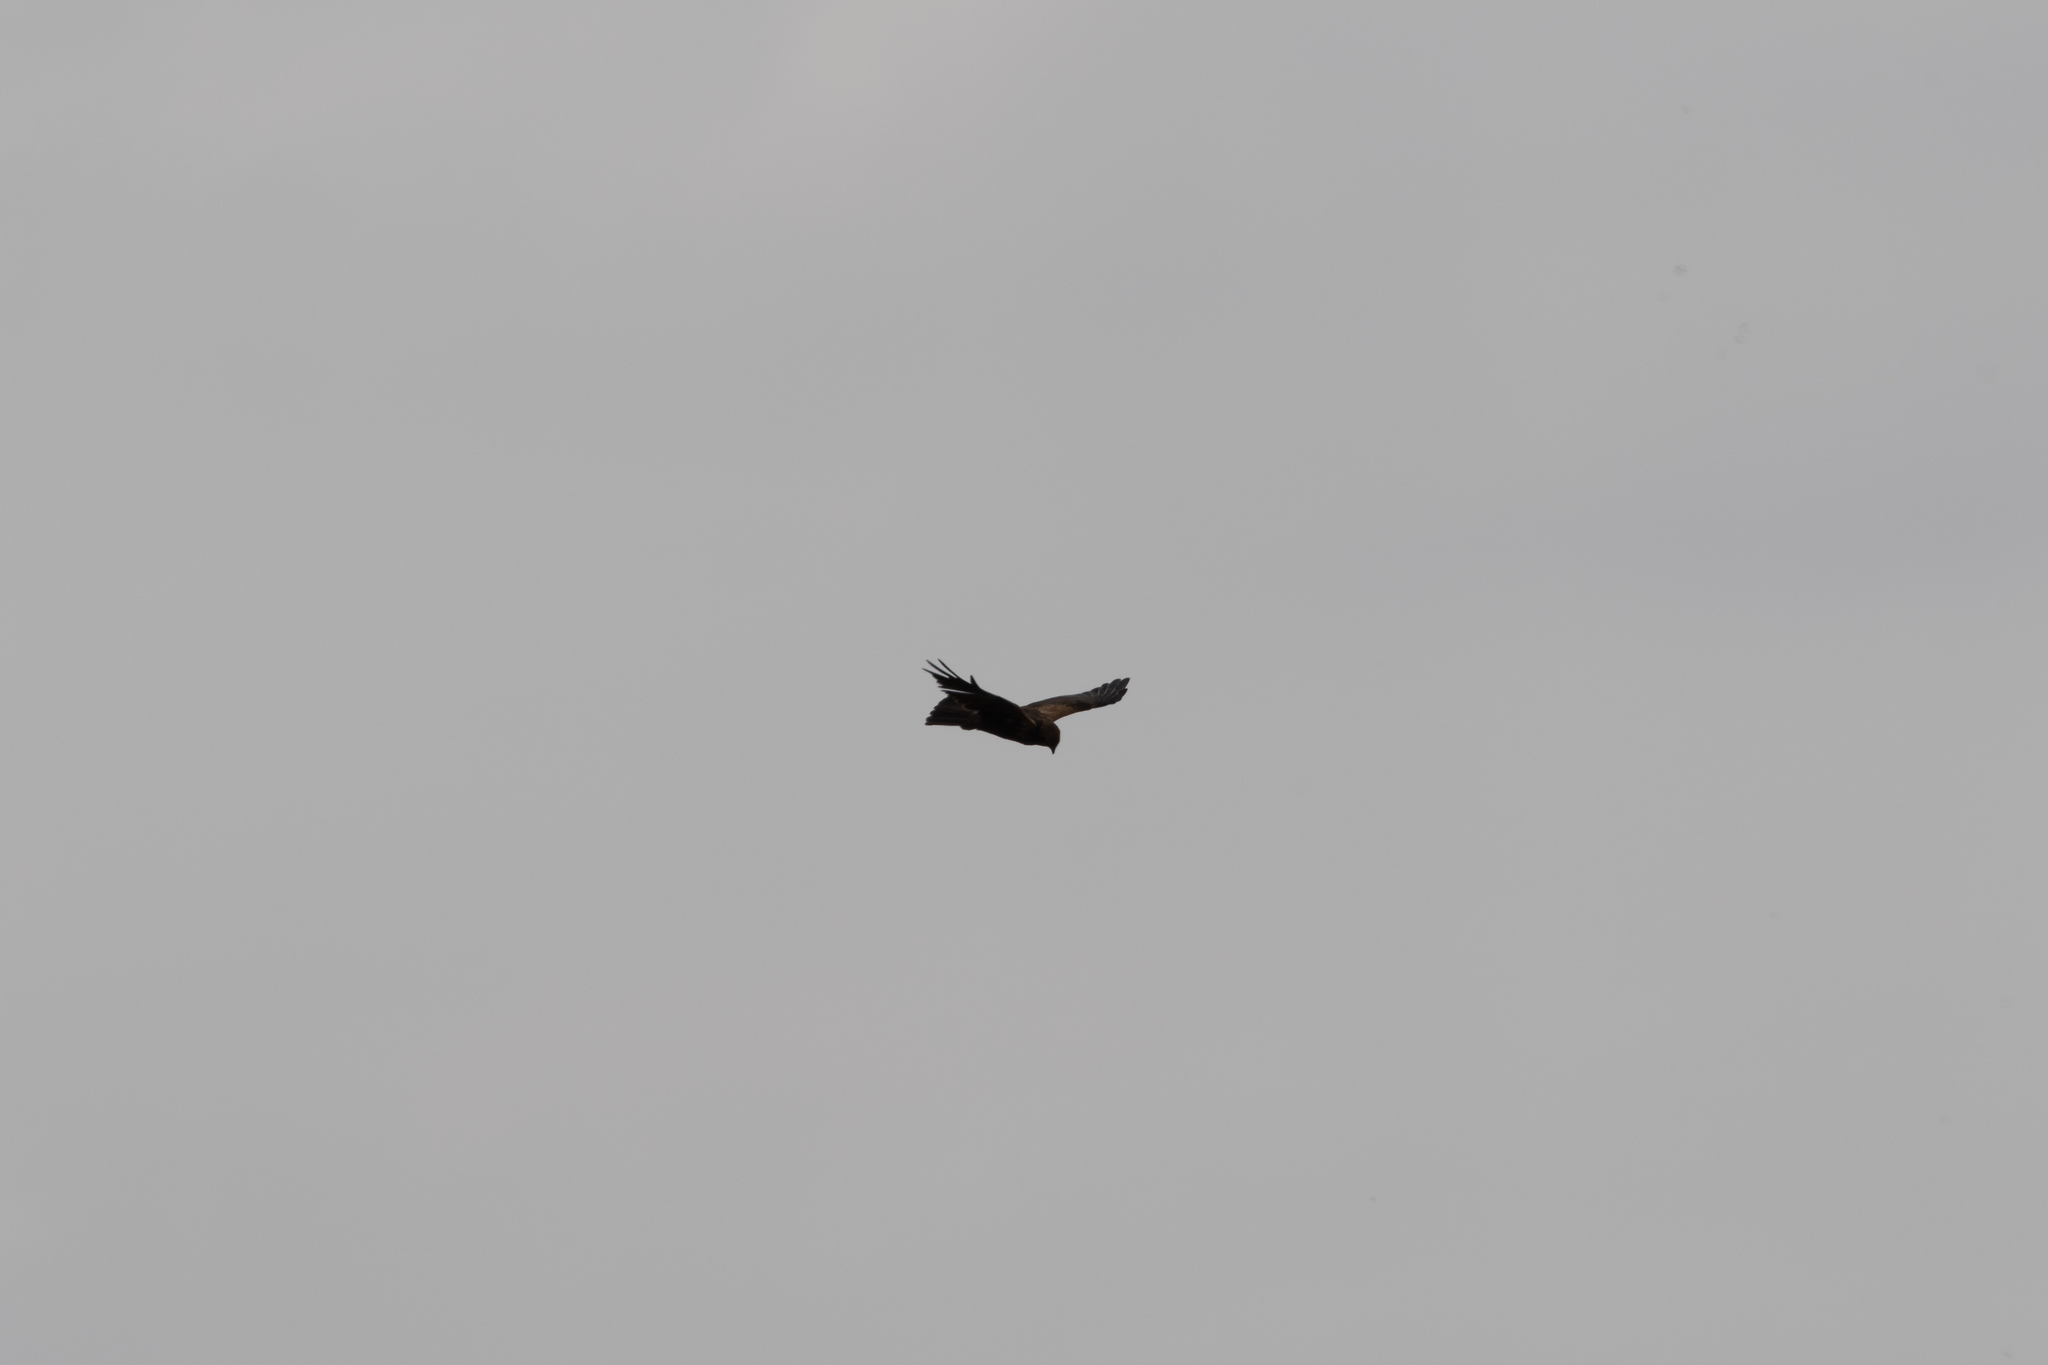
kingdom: Animalia
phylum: Chordata
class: Aves
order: Accipitriformes
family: Accipitridae
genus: Circus
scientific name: Circus aeruginosus
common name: Western marsh harrier
